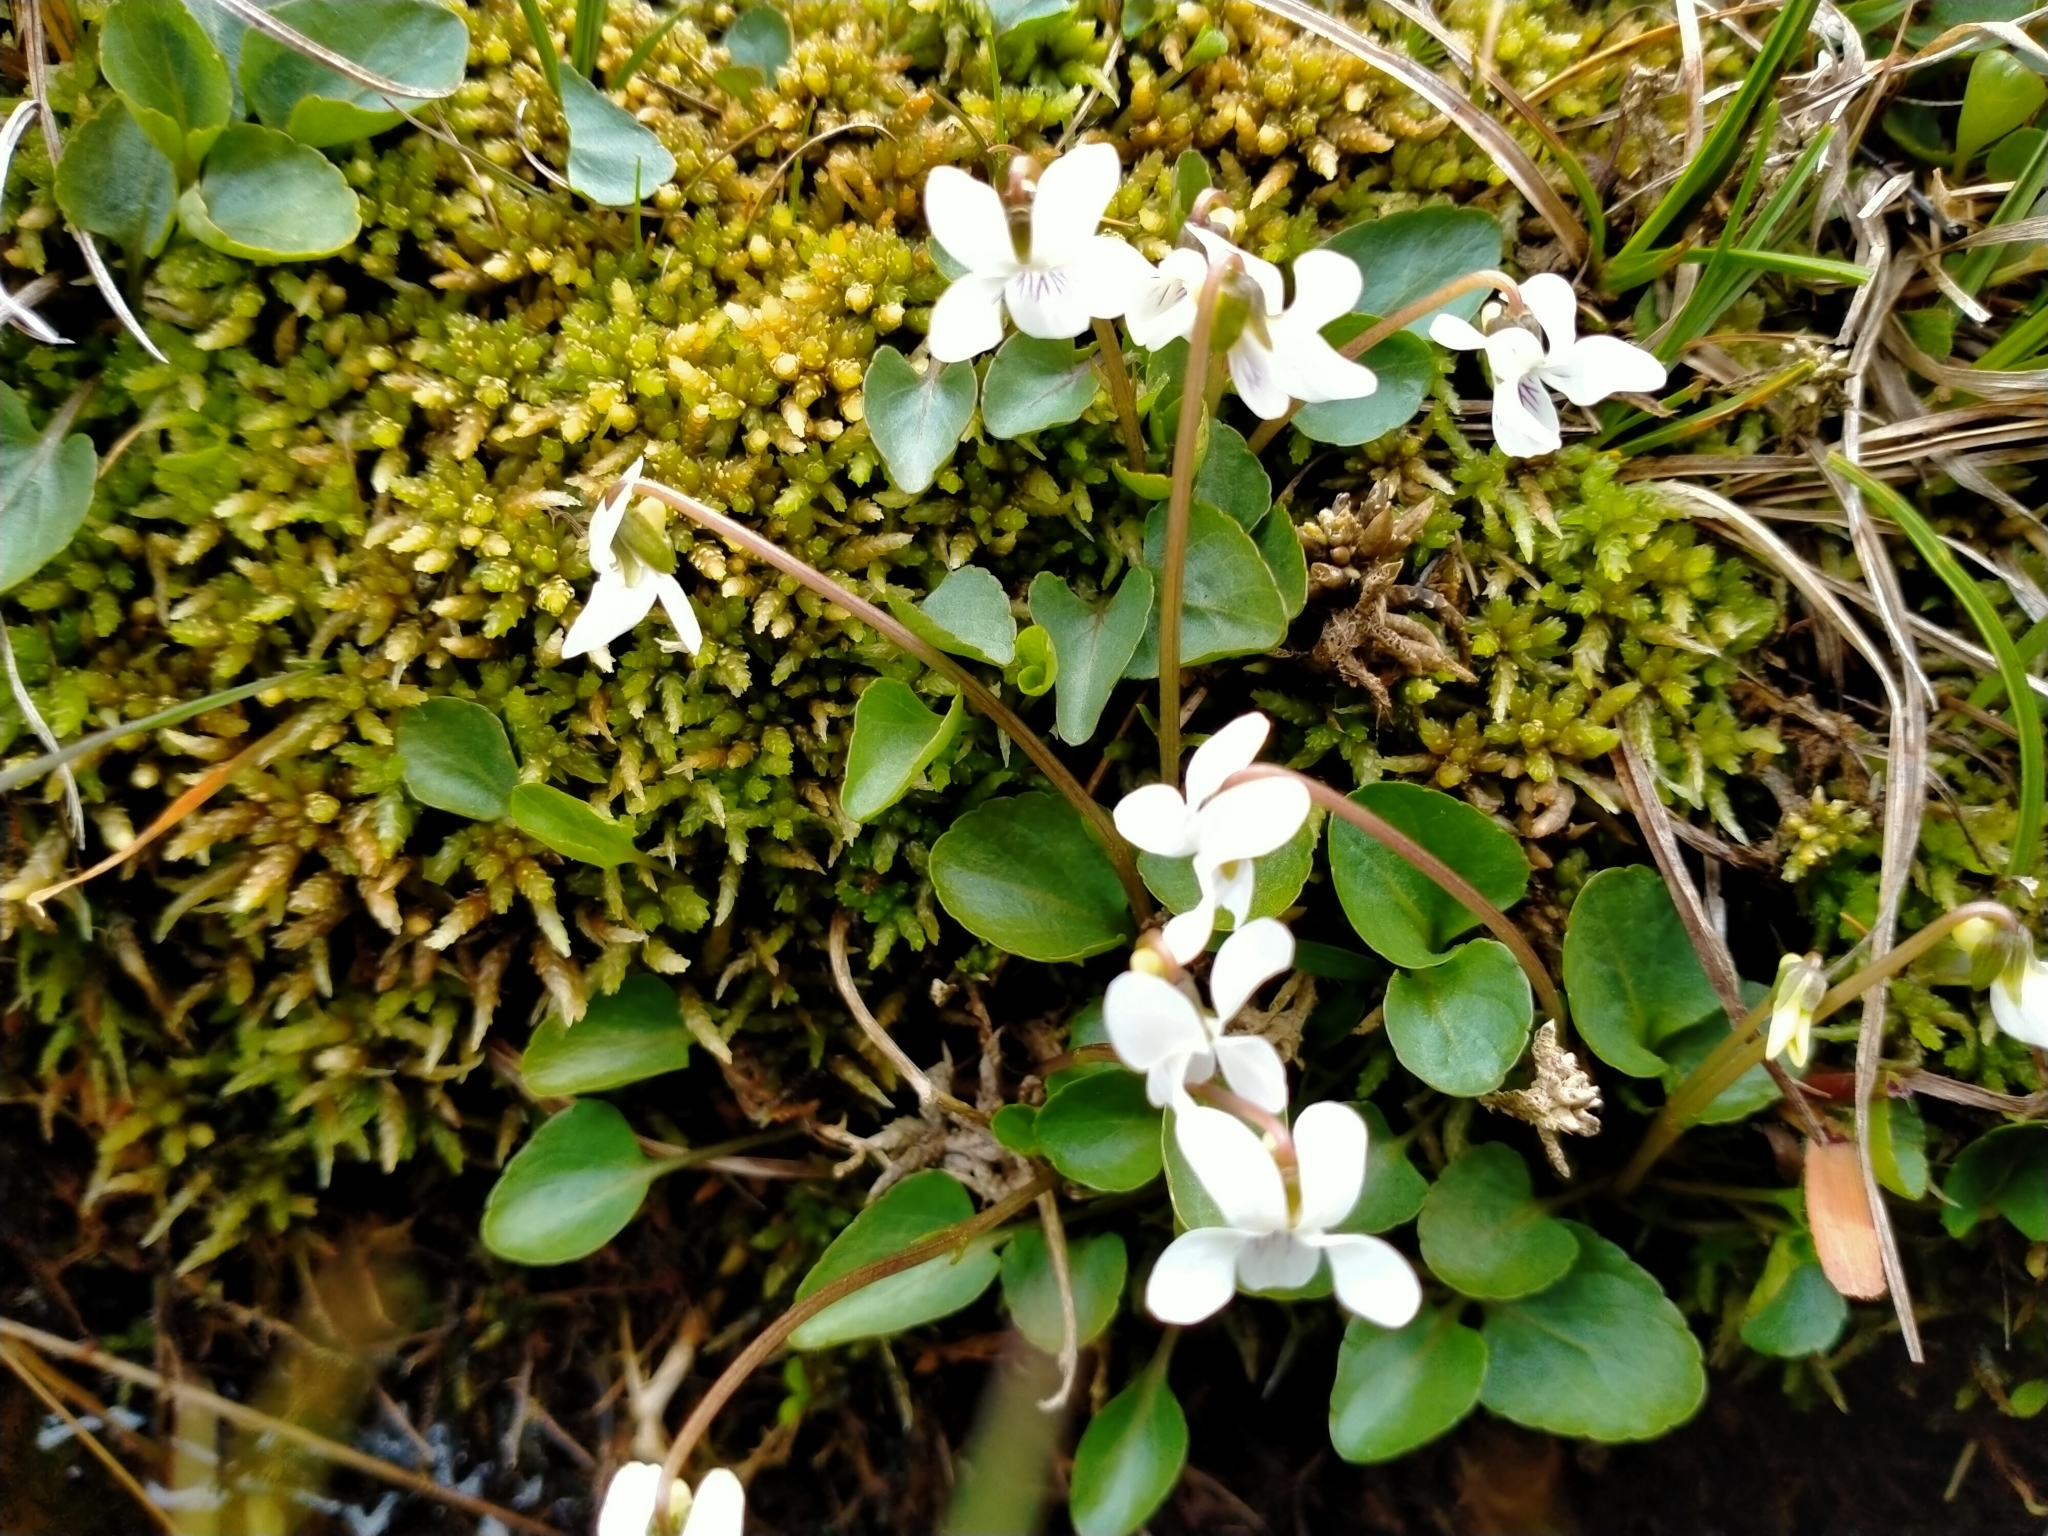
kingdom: Plantae
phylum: Tracheophyta
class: Magnoliopsida
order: Malpighiales
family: Violaceae
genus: Viola
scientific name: Viola cunninghamii
